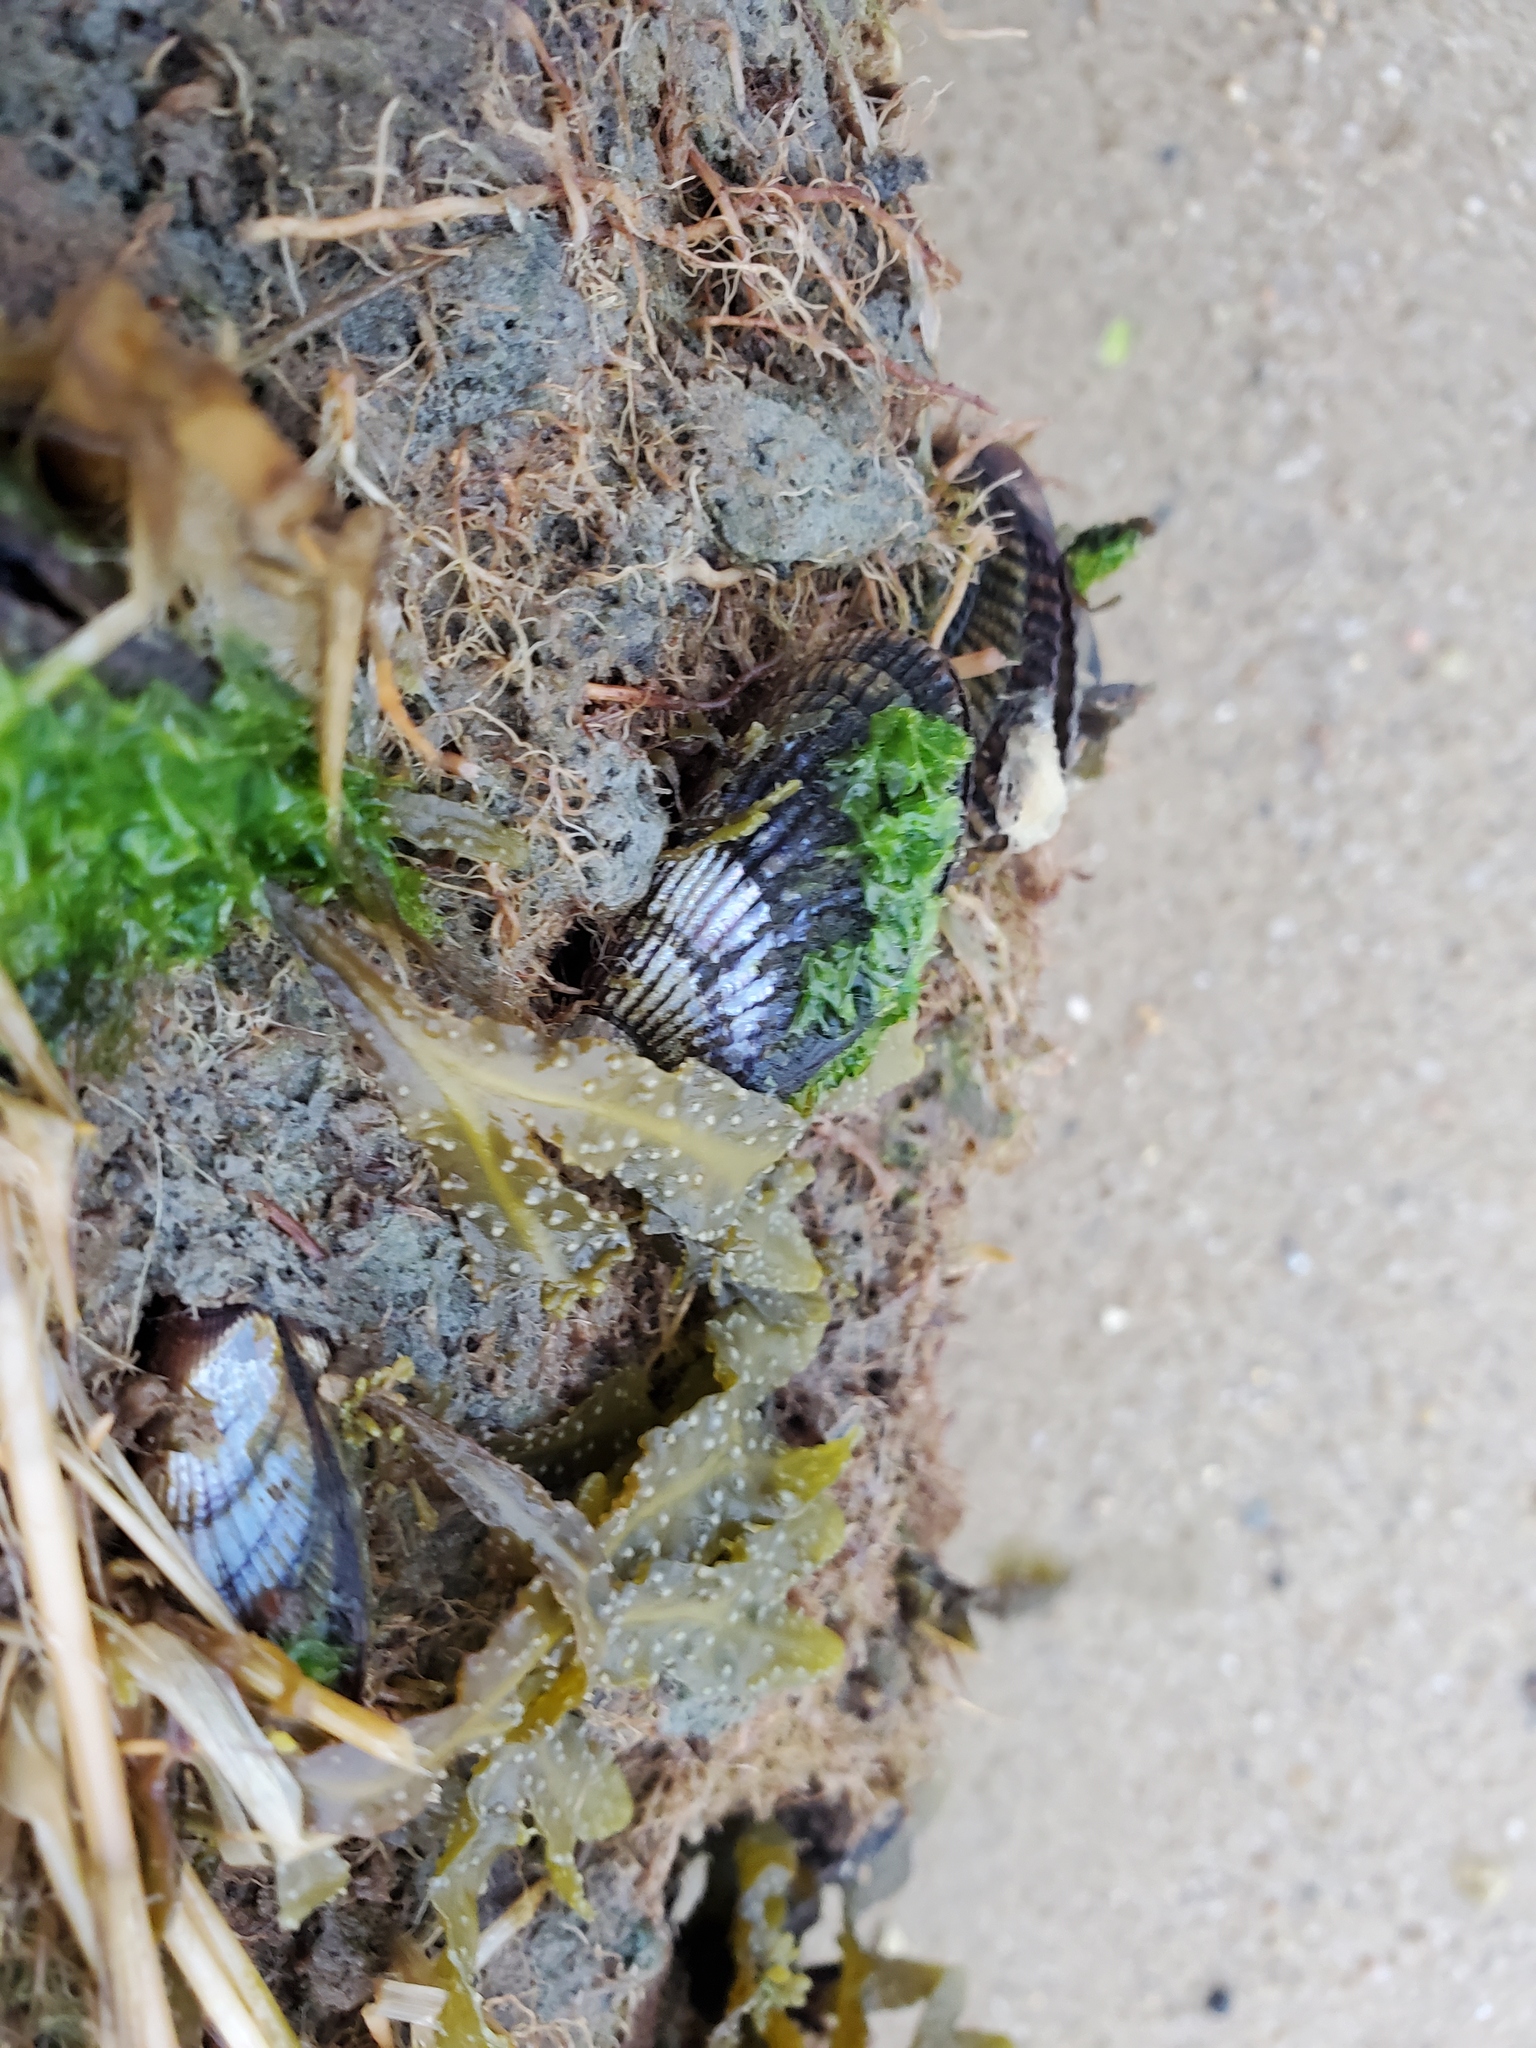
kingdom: Animalia
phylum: Mollusca
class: Bivalvia
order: Mytilida
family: Mytilidae
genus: Geukensia
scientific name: Geukensia demissa
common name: Ribbed mussel
